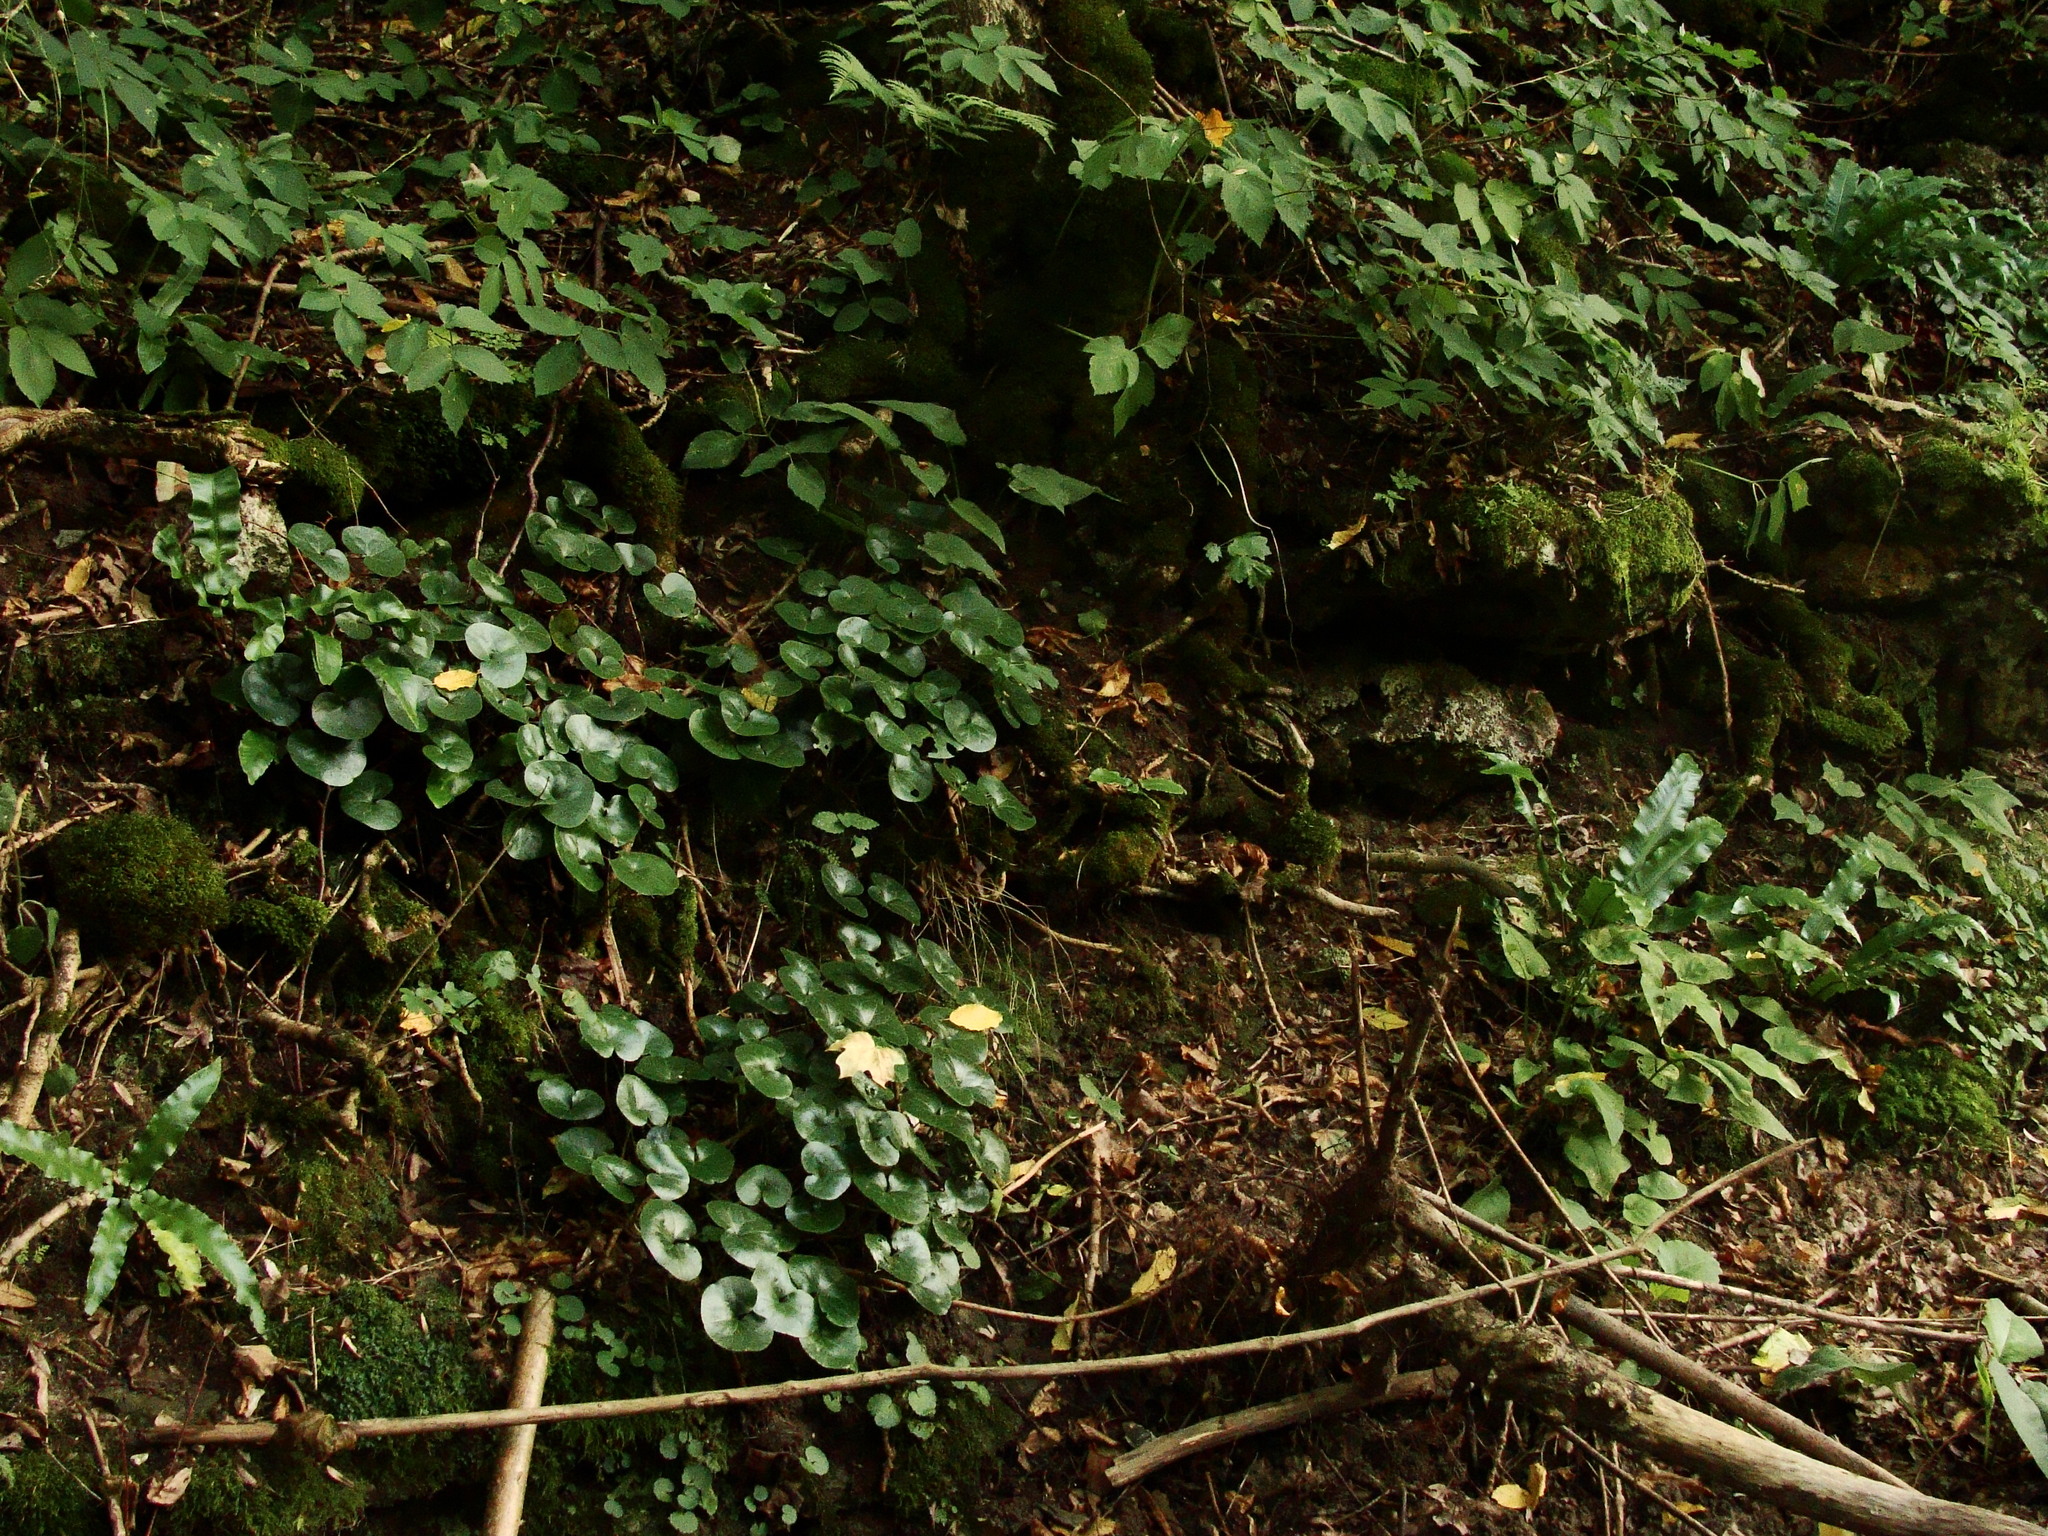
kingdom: Plantae
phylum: Tracheophyta
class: Magnoliopsida
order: Piperales
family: Aristolochiaceae
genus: Asarum
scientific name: Asarum europaeum
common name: Asarabacca
